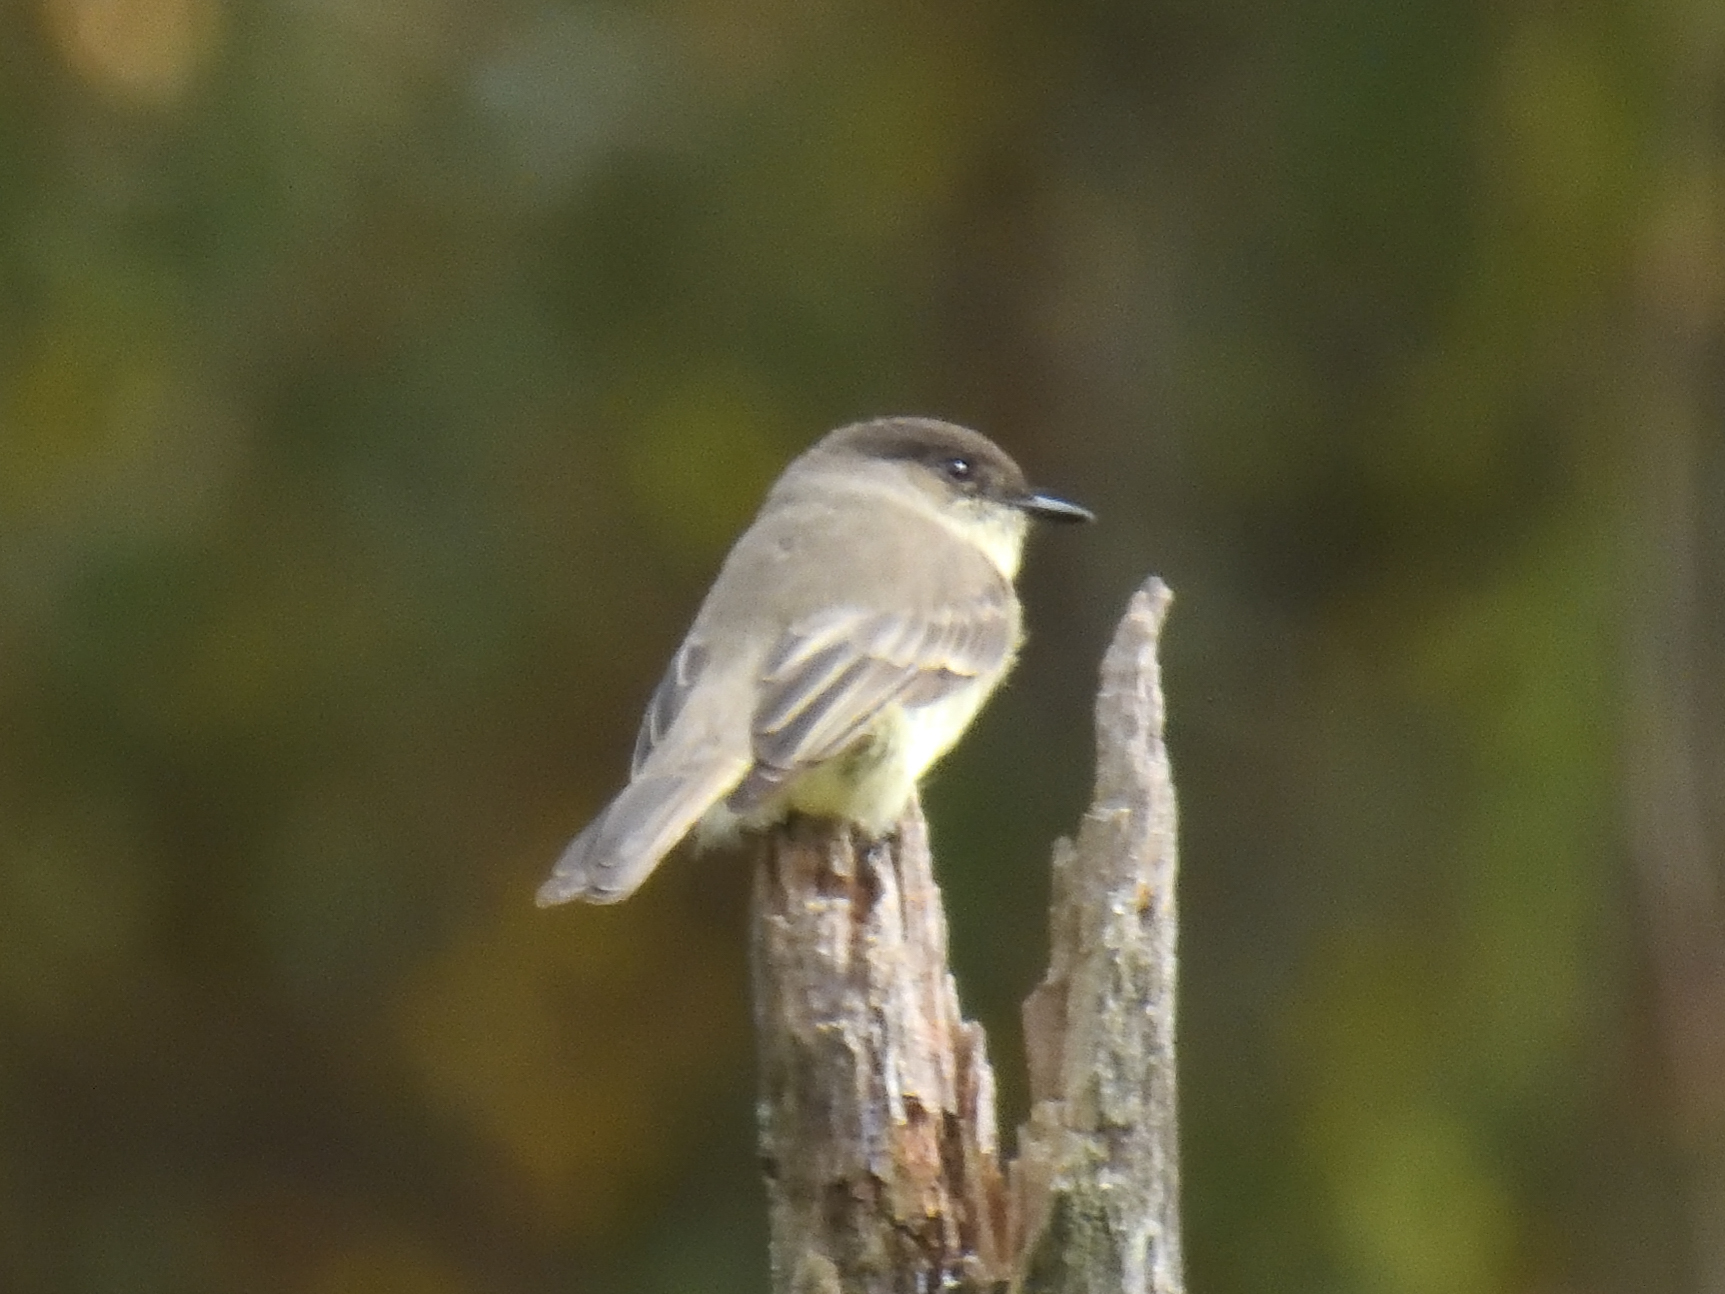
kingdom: Animalia
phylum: Chordata
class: Aves
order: Passeriformes
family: Tyrannidae
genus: Sayornis
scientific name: Sayornis phoebe
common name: Eastern phoebe
